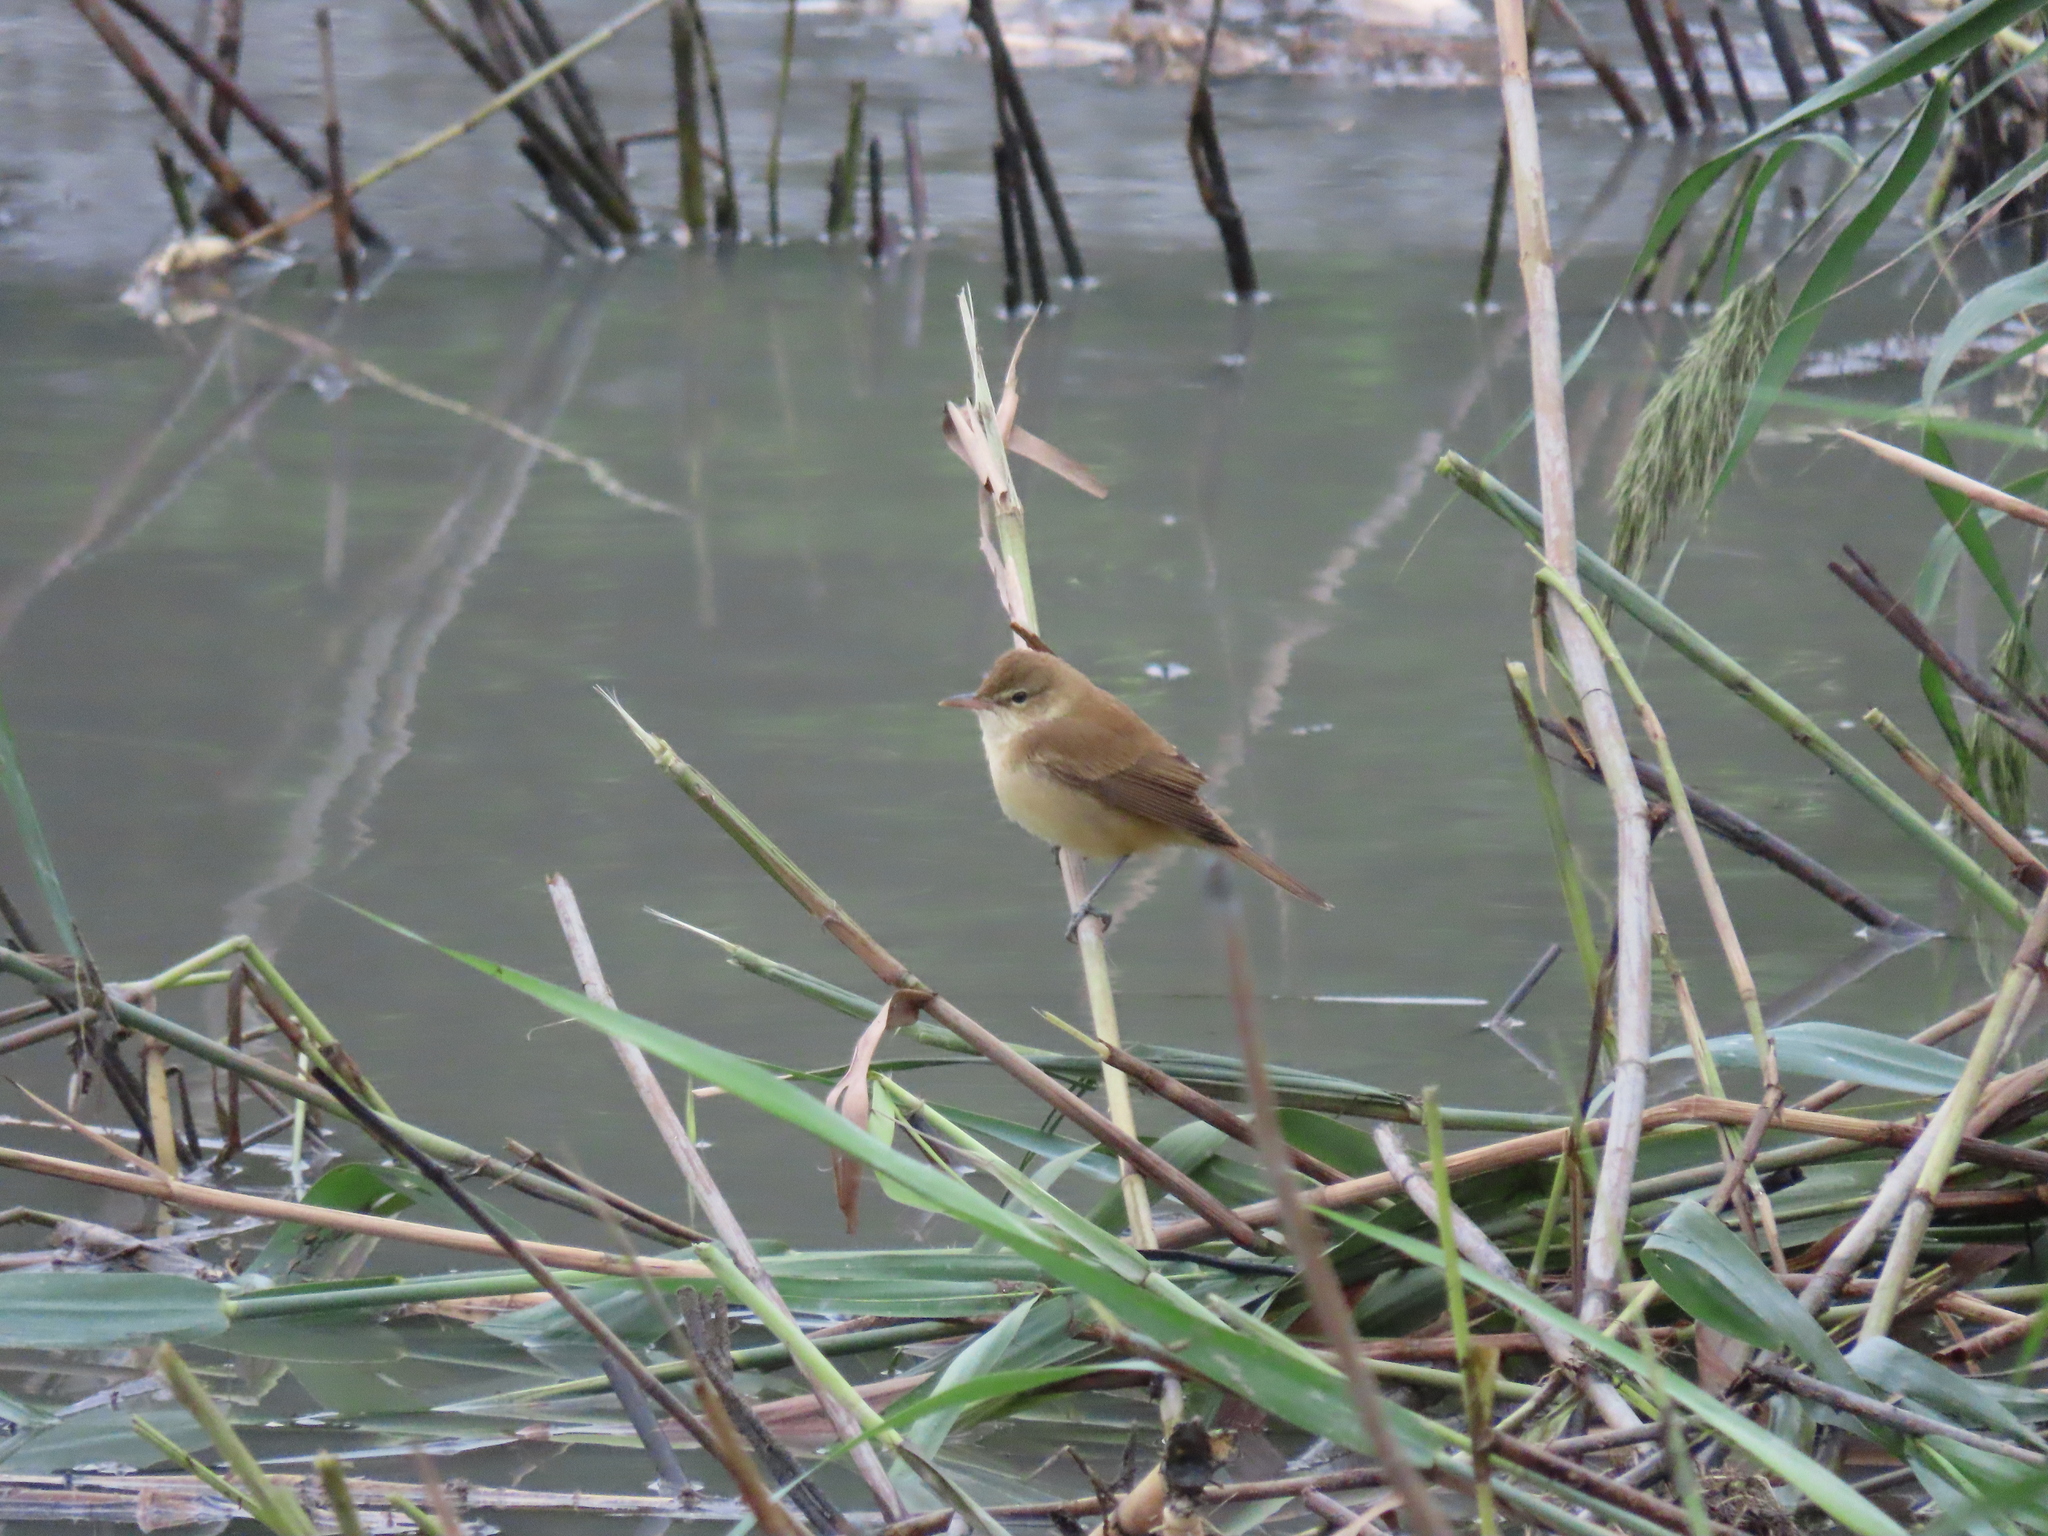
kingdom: Animalia
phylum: Chordata
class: Aves
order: Passeriformes
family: Acrocephalidae
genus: Acrocephalus
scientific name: Acrocephalus orientalis
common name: Oriental reed warbler
